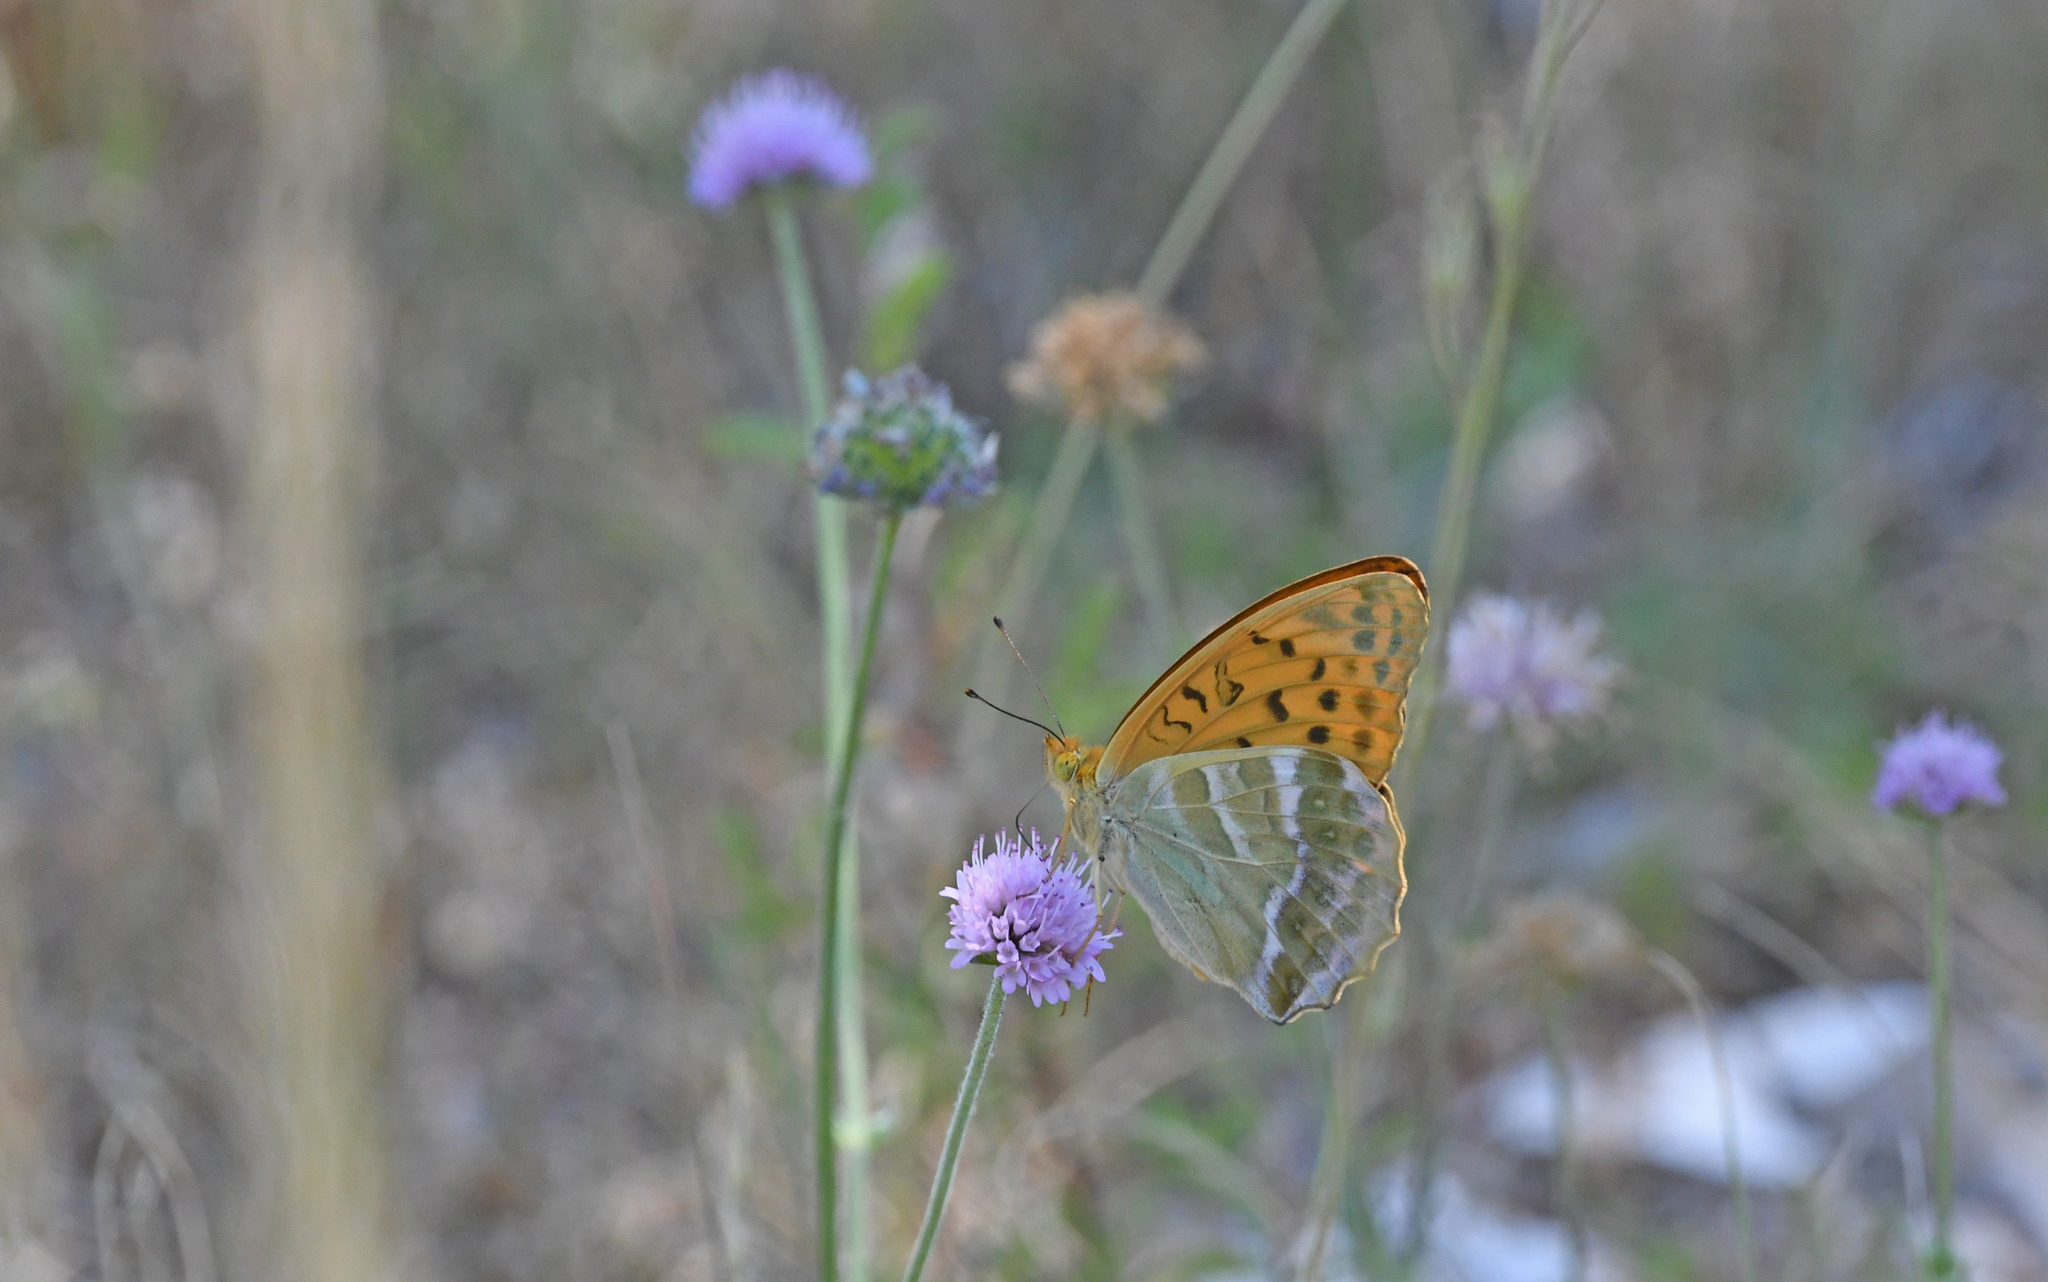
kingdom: Animalia
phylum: Arthropoda
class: Insecta
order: Lepidoptera
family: Nymphalidae
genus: Argynnis
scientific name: Argynnis paphia
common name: Silver-washed fritillary
